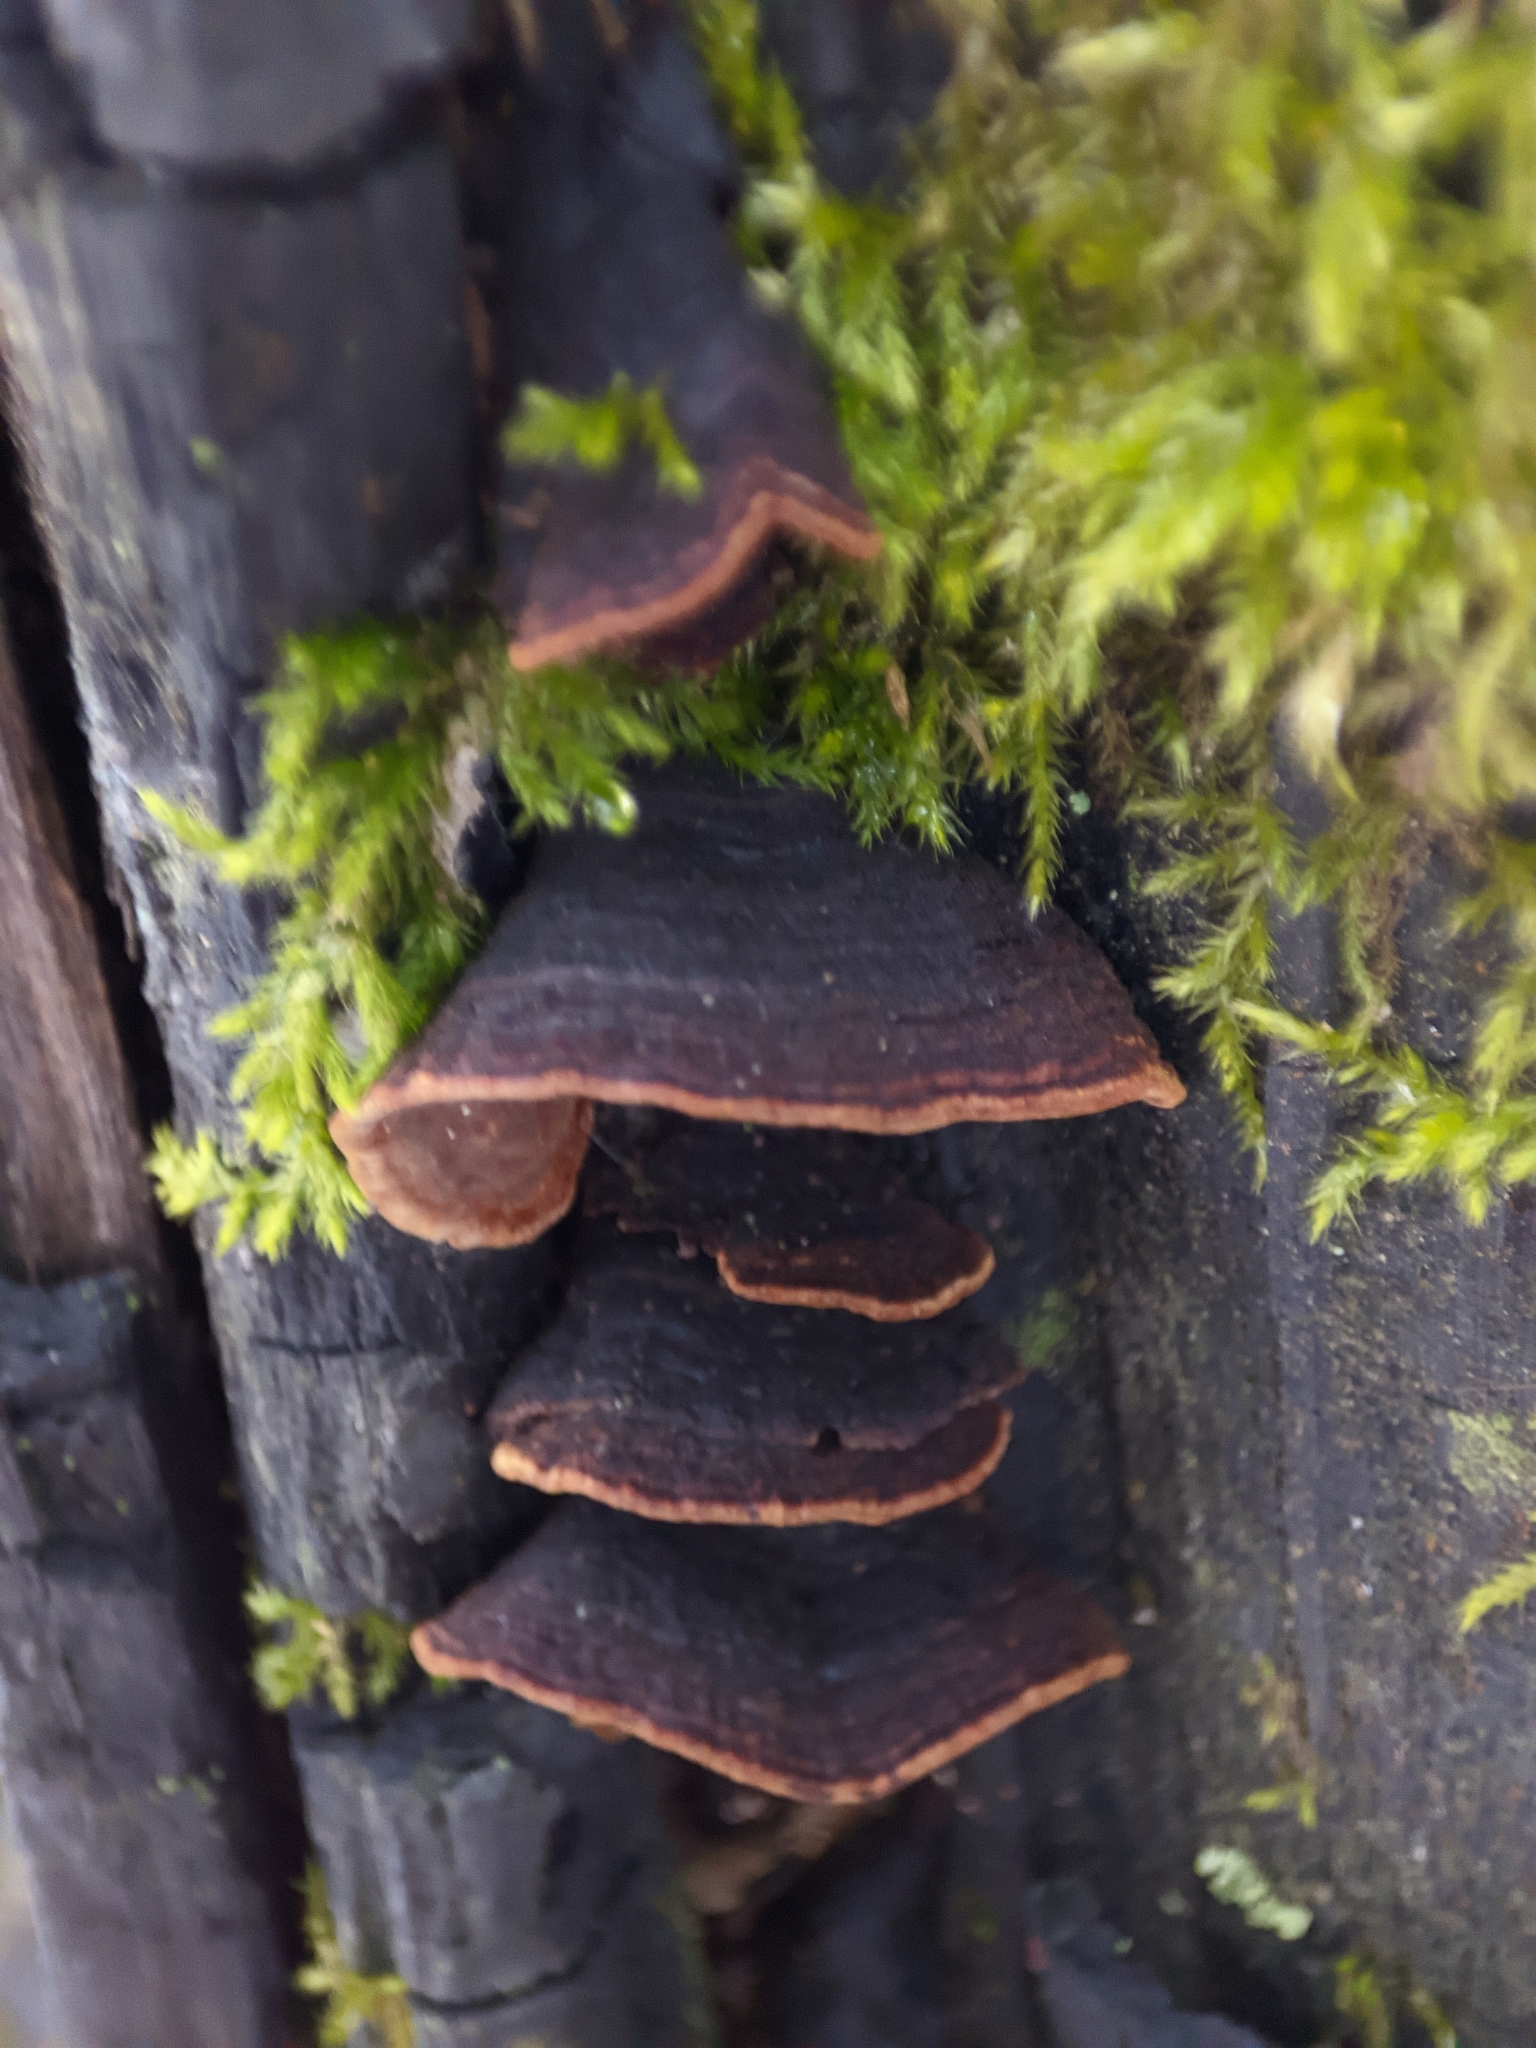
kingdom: Fungi
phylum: Basidiomycota
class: Agaricomycetes
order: Hymenochaetales
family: Hymenochaetaceae
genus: Hymenochaete
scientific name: Hymenochaete rubiginosa
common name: Oak curtain crust
